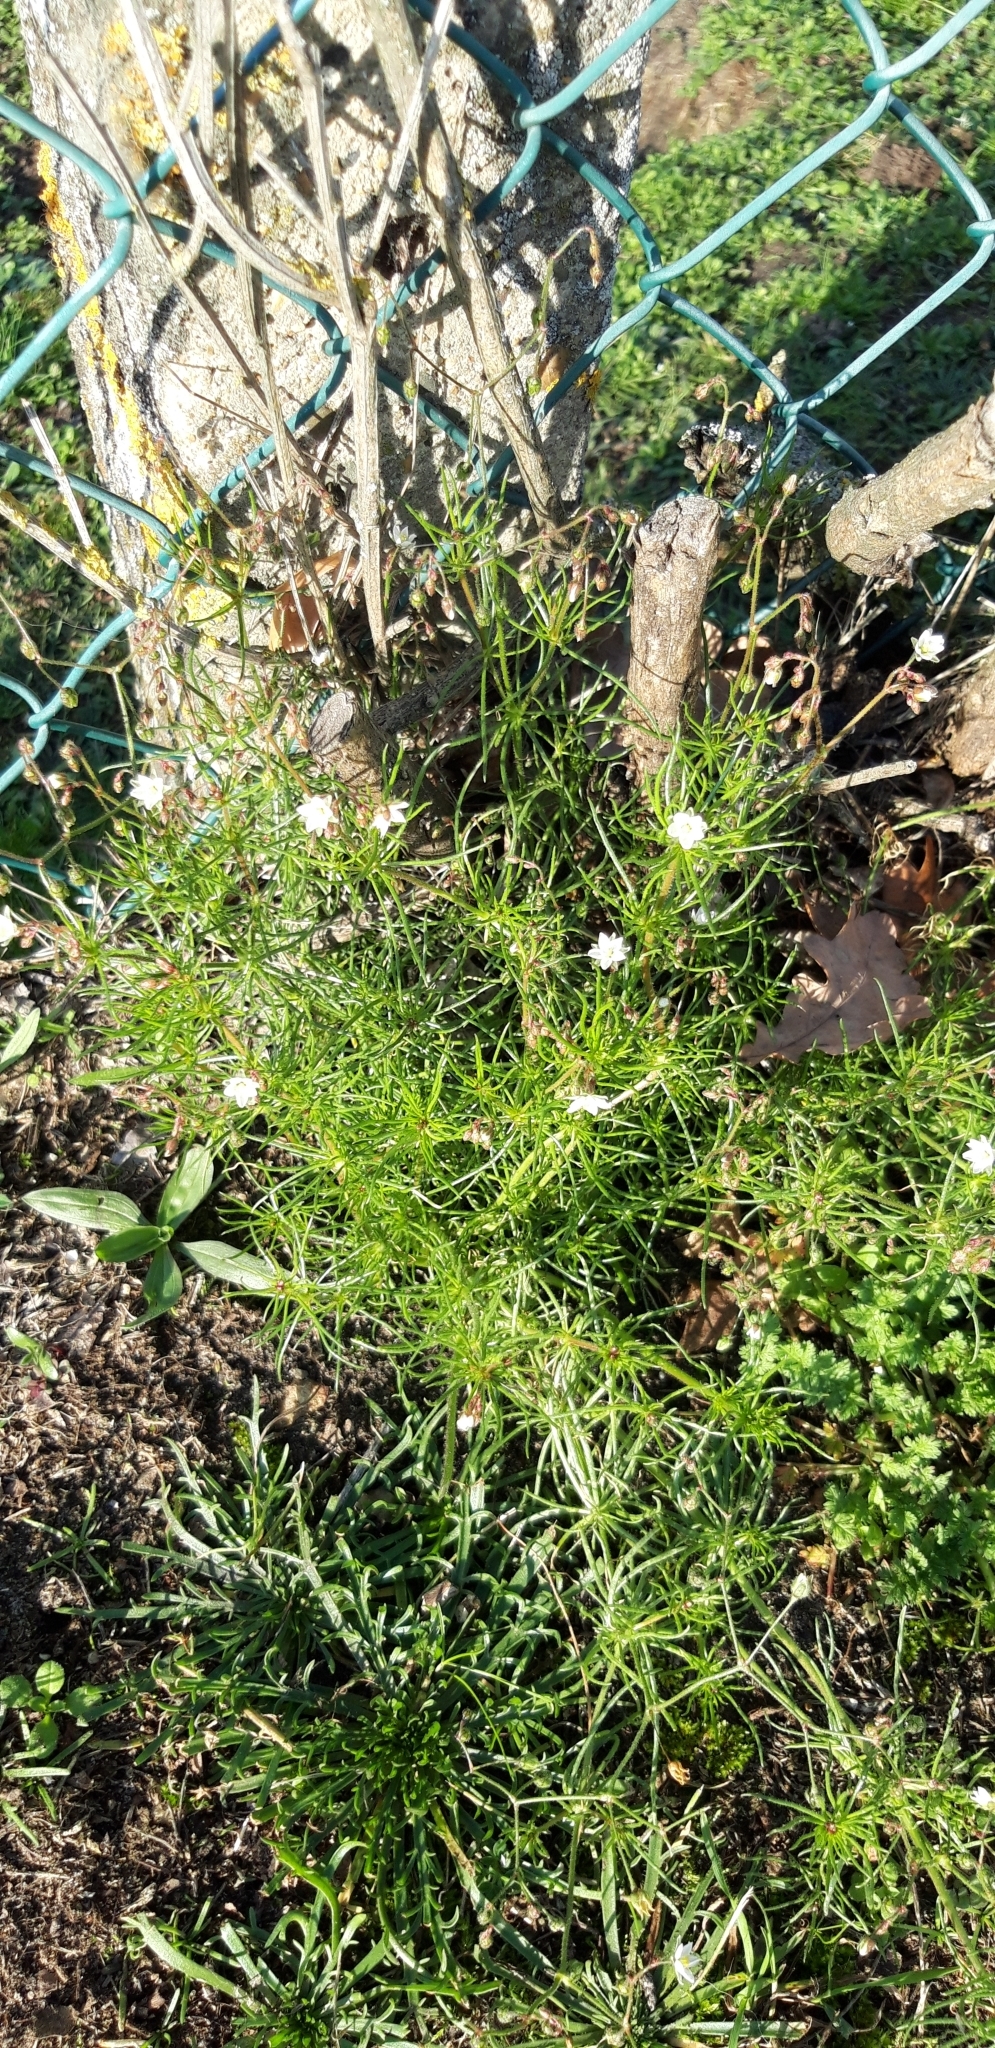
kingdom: Plantae
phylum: Tracheophyta
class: Magnoliopsida
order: Caryophyllales
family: Caryophyllaceae
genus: Spergula
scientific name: Spergula arvensis
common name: Corn spurrey
